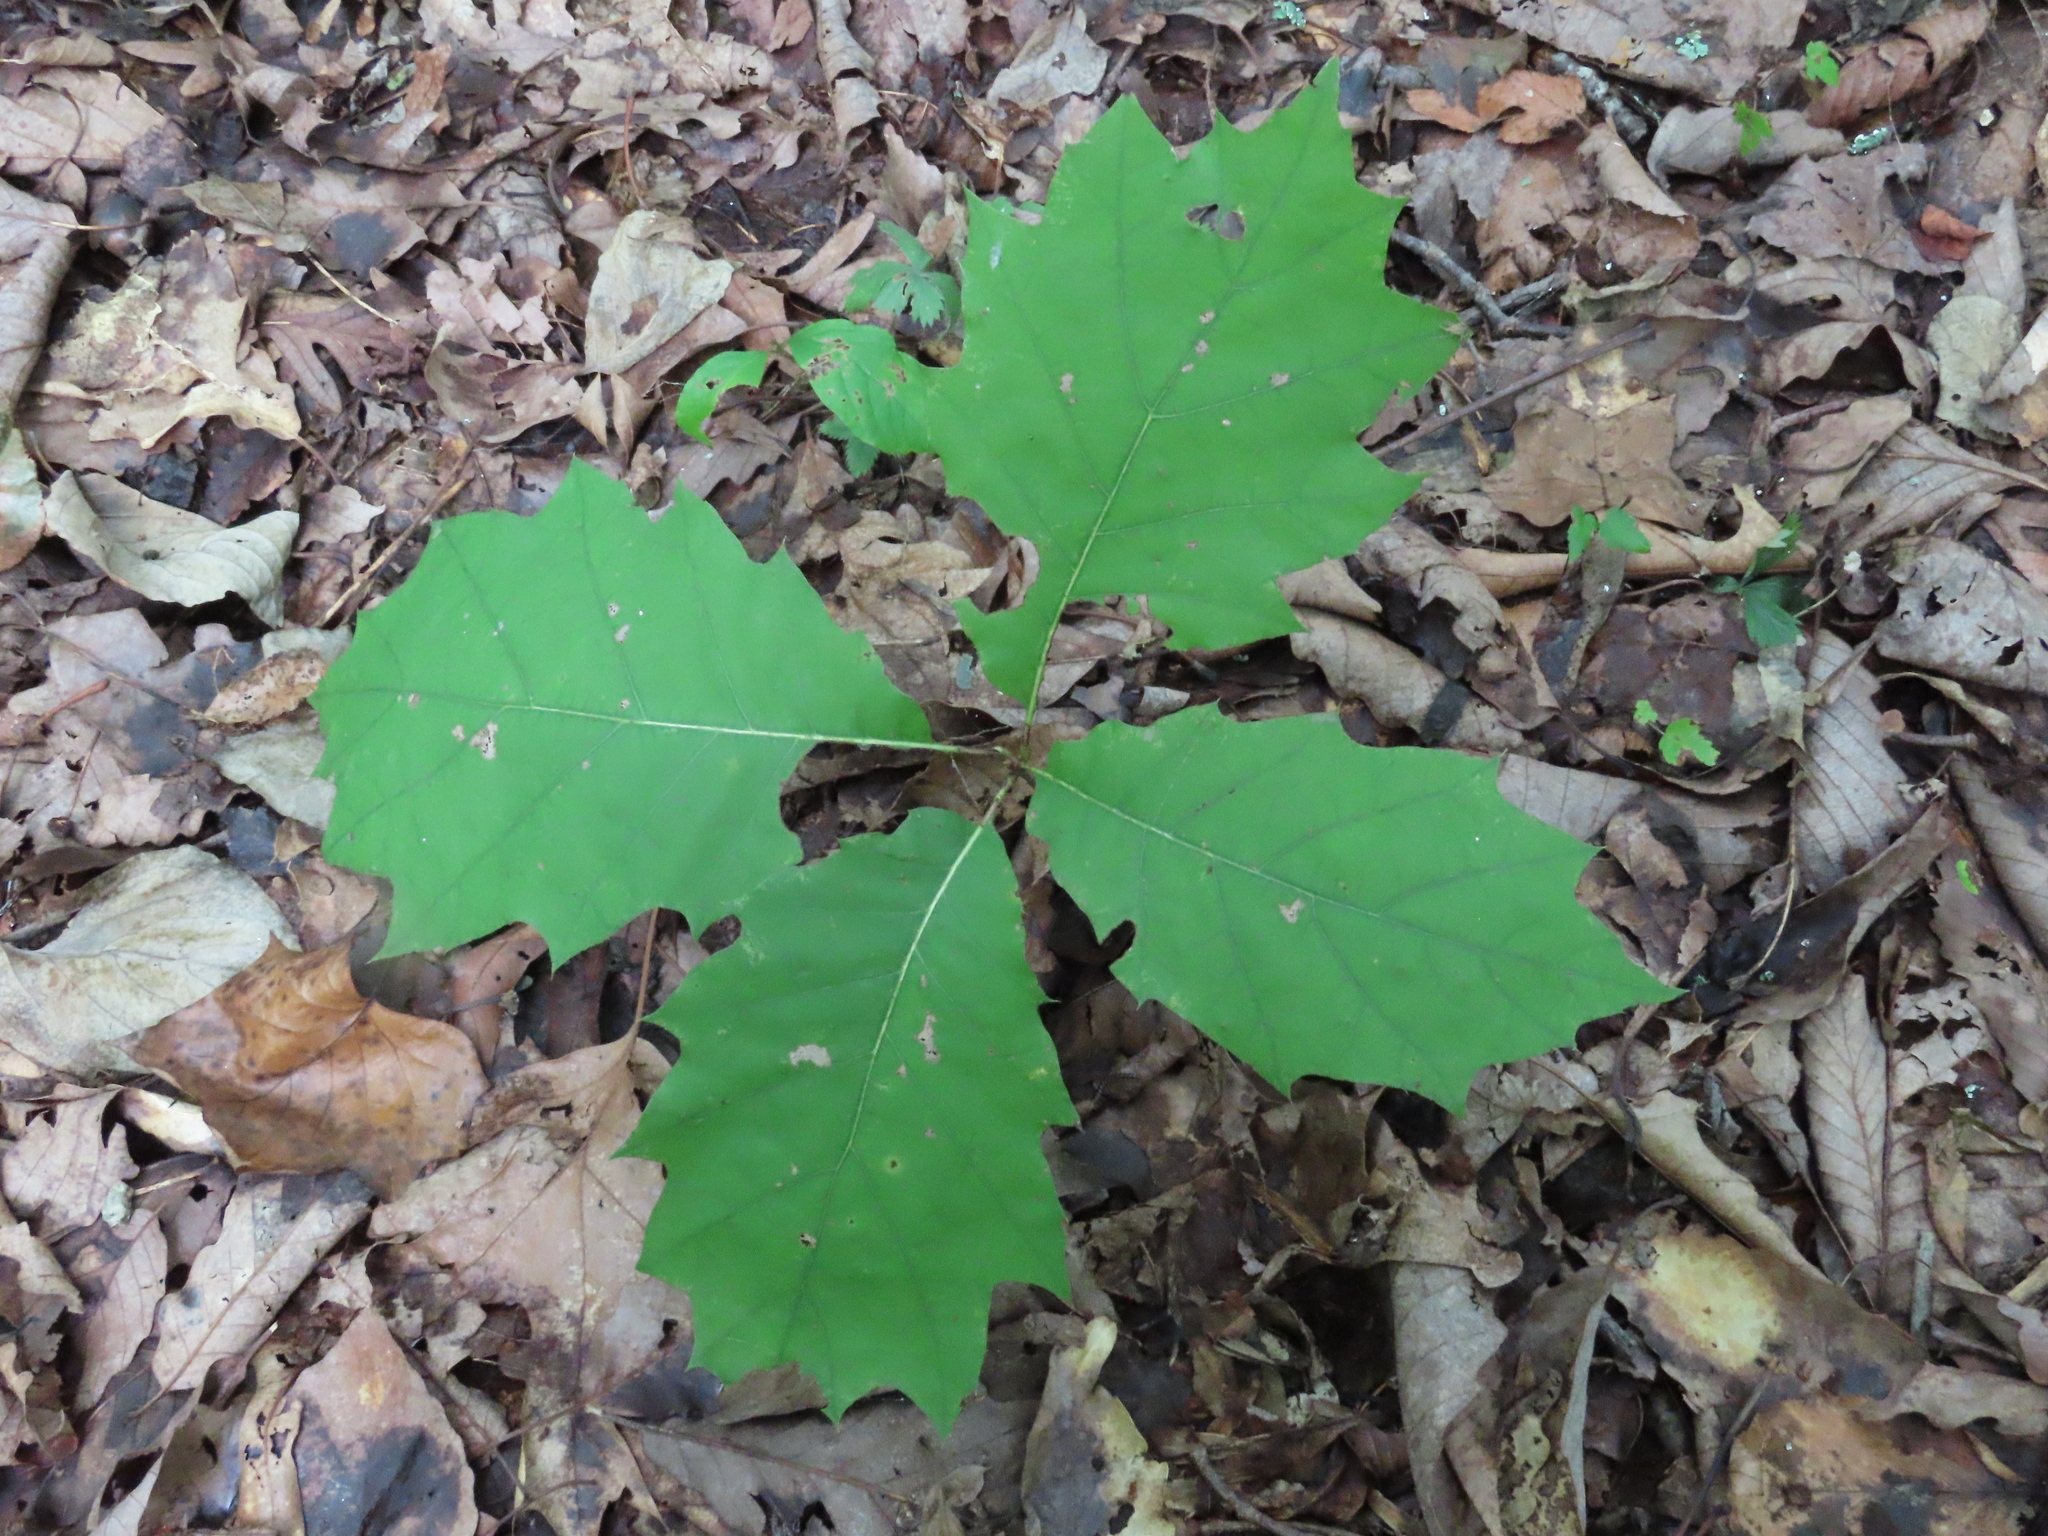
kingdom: Plantae
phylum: Tracheophyta
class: Magnoliopsida
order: Fagales
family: Fagaceae
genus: Quercus
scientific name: Quercus rubra
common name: Red oak
